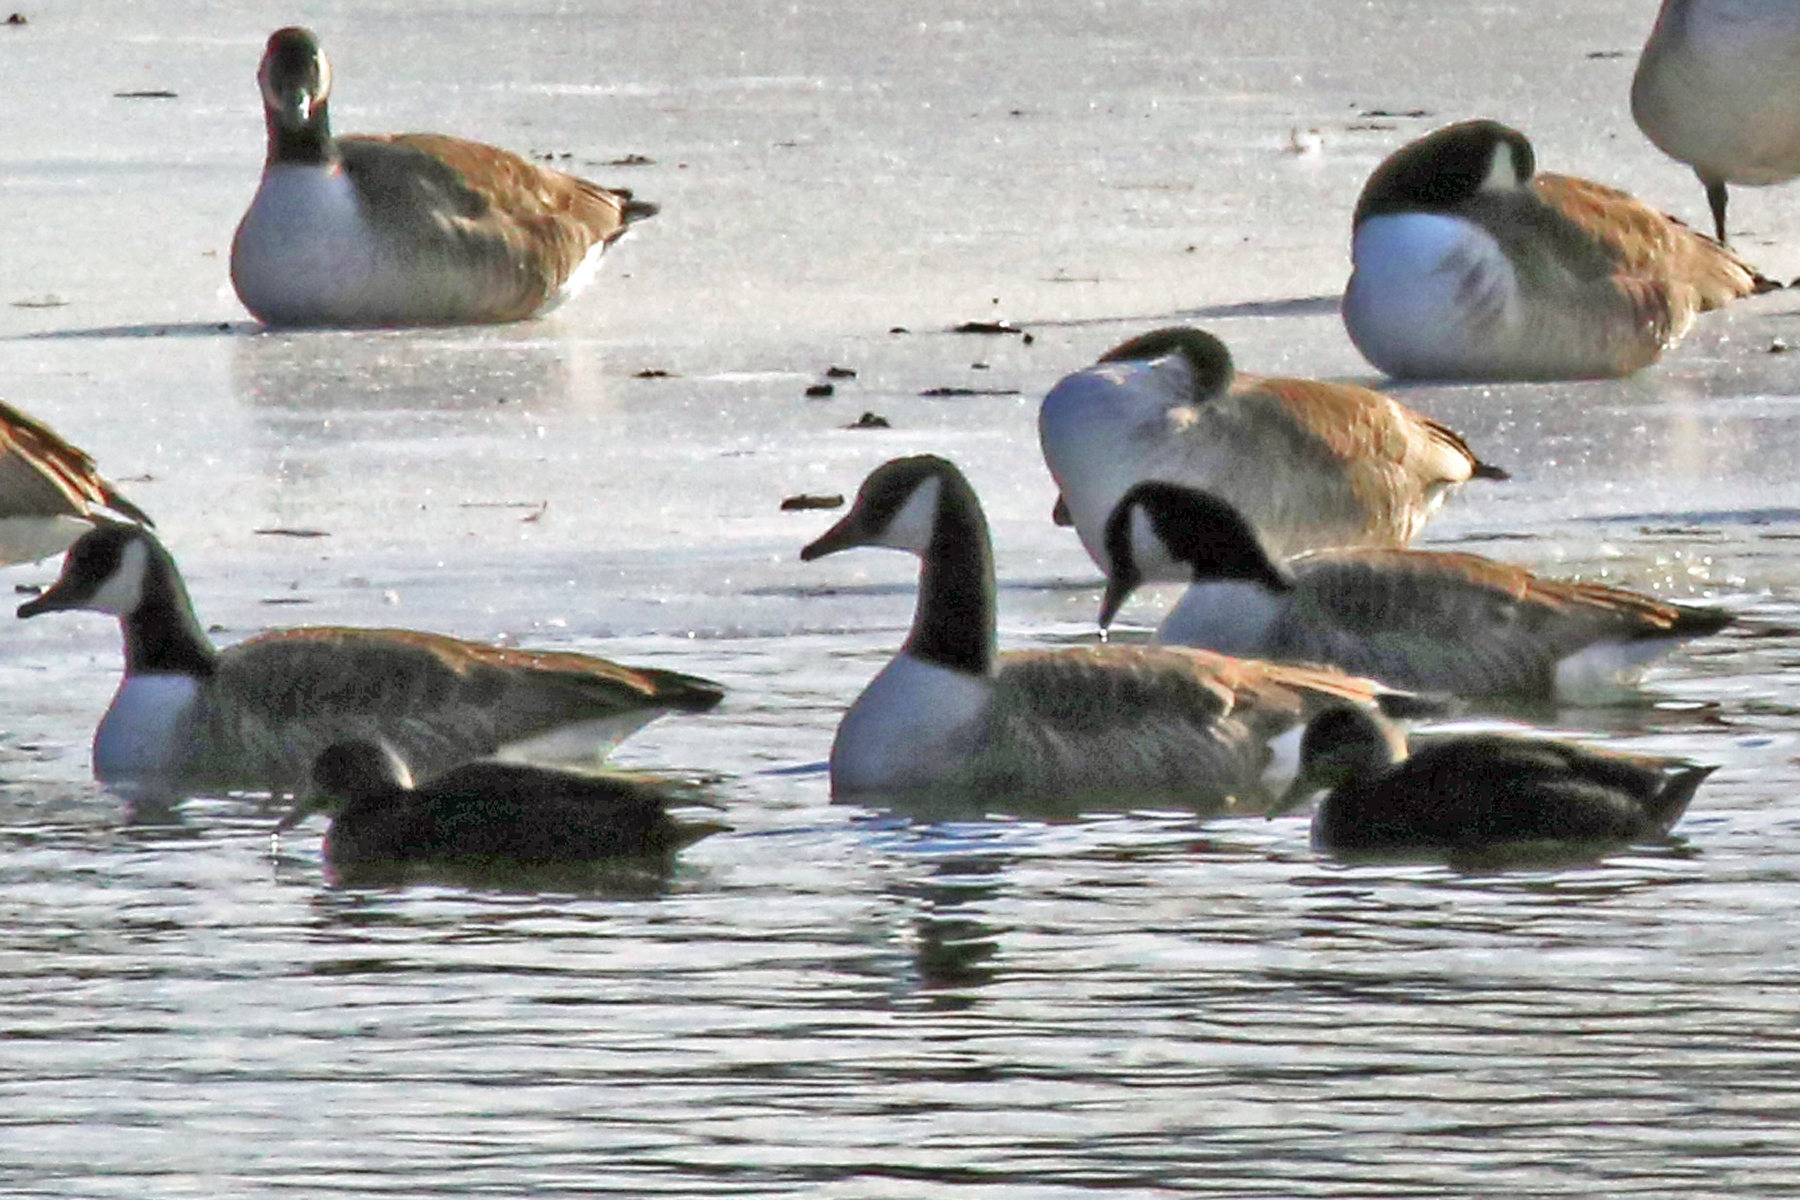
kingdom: Animalia
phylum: Chordata
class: Aves
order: Anseriformes
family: Anatidae
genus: Anas
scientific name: Anas rubripes
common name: American black duck
